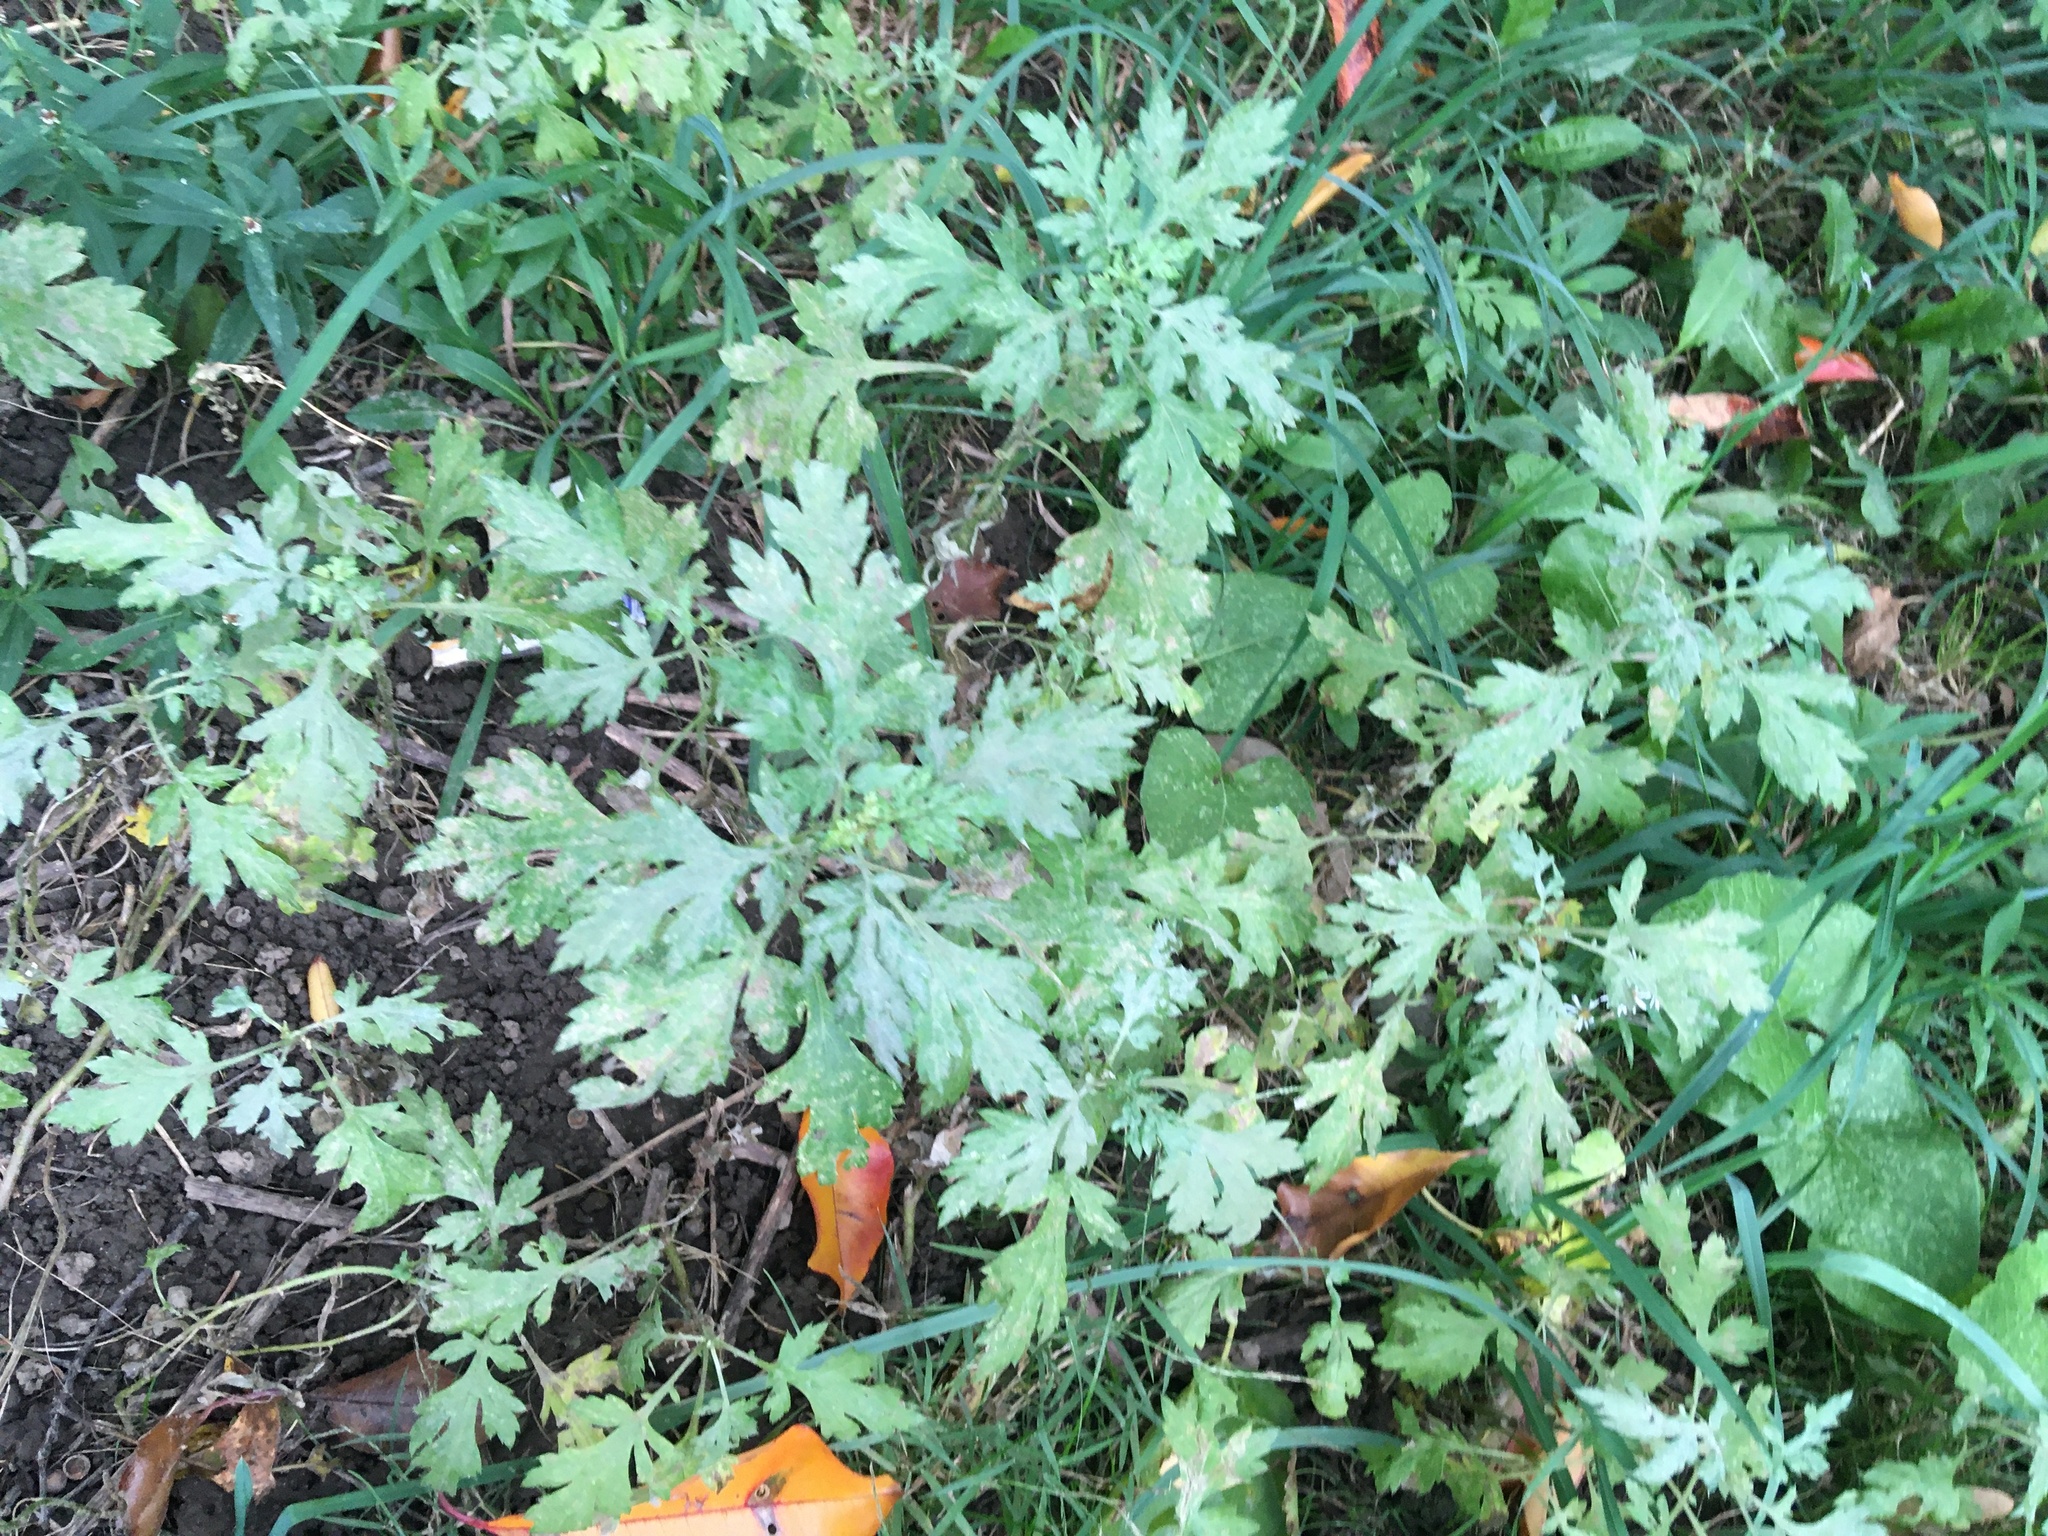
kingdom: Plantae
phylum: Tracheophyta
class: Magnoliopsida
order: Asterales
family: Asteraceae
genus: Artemisia
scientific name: Artemisia vulgaris
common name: Mugwort
